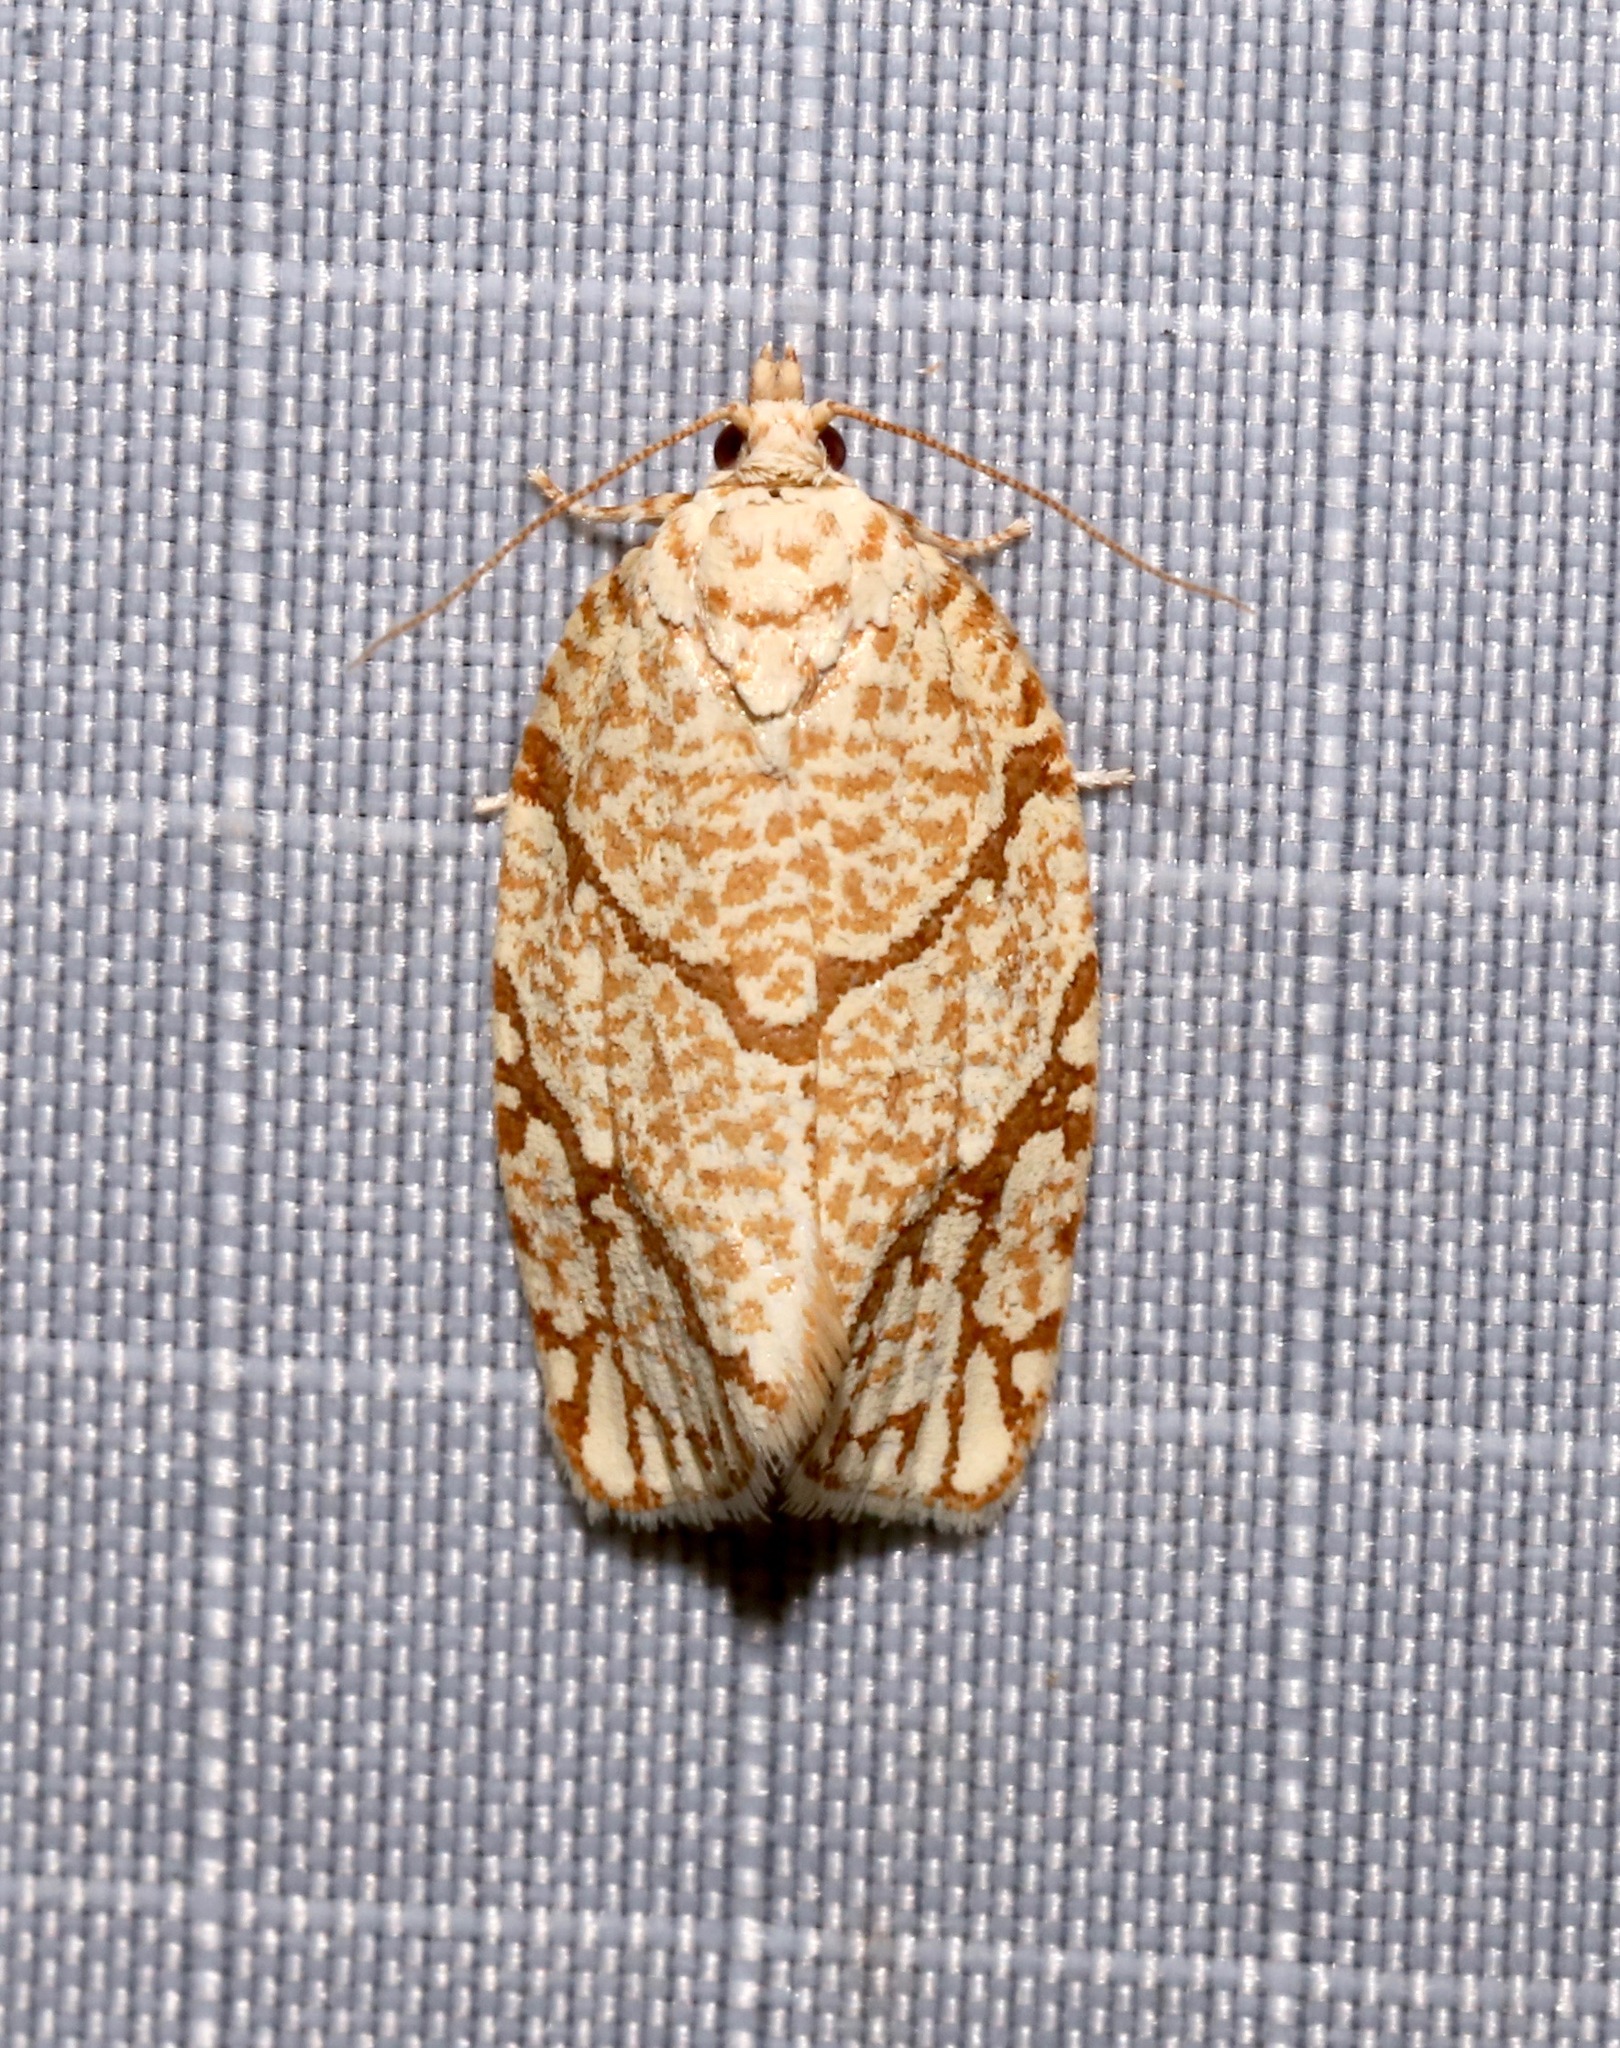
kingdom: Animalia
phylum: Arthropoda
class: Insecta
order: Lepidoptera
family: Tortricidae
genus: Argyrotaenia
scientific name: Argyrotaenia quercifoliana
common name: Yellow-winged oak leafroller moth
